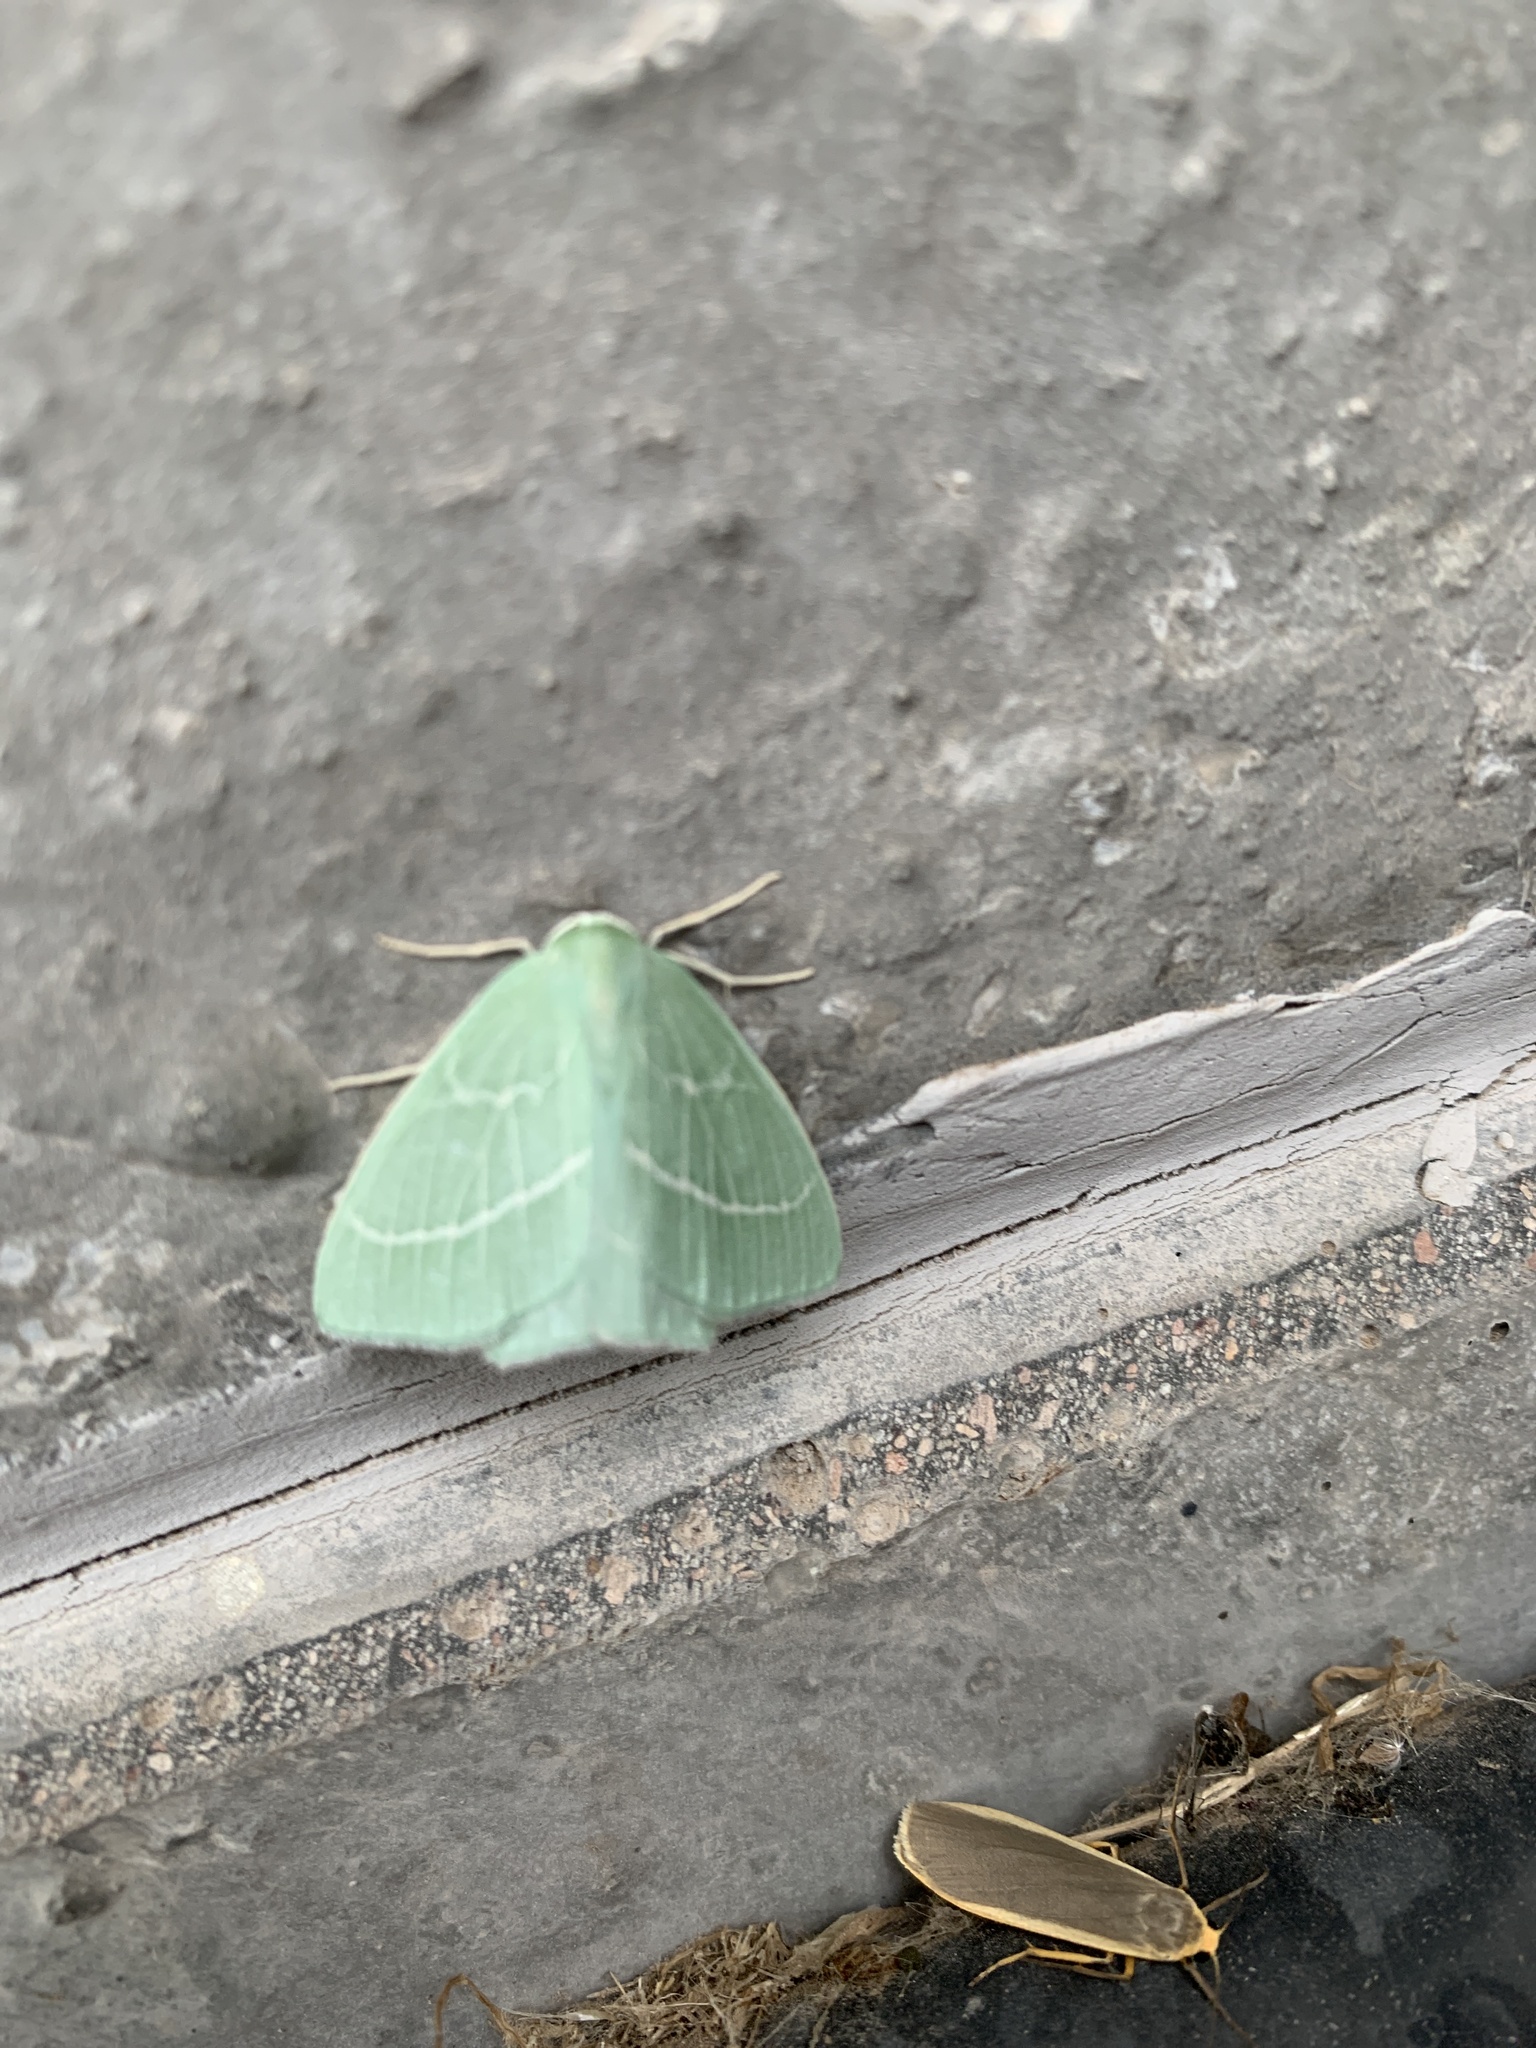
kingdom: Animalia
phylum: Arthropoda
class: Insecta
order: Lepidoptera
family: Geometridae
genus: Hemistola
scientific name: Hemistola chrysoprasaria
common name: Small emerald
